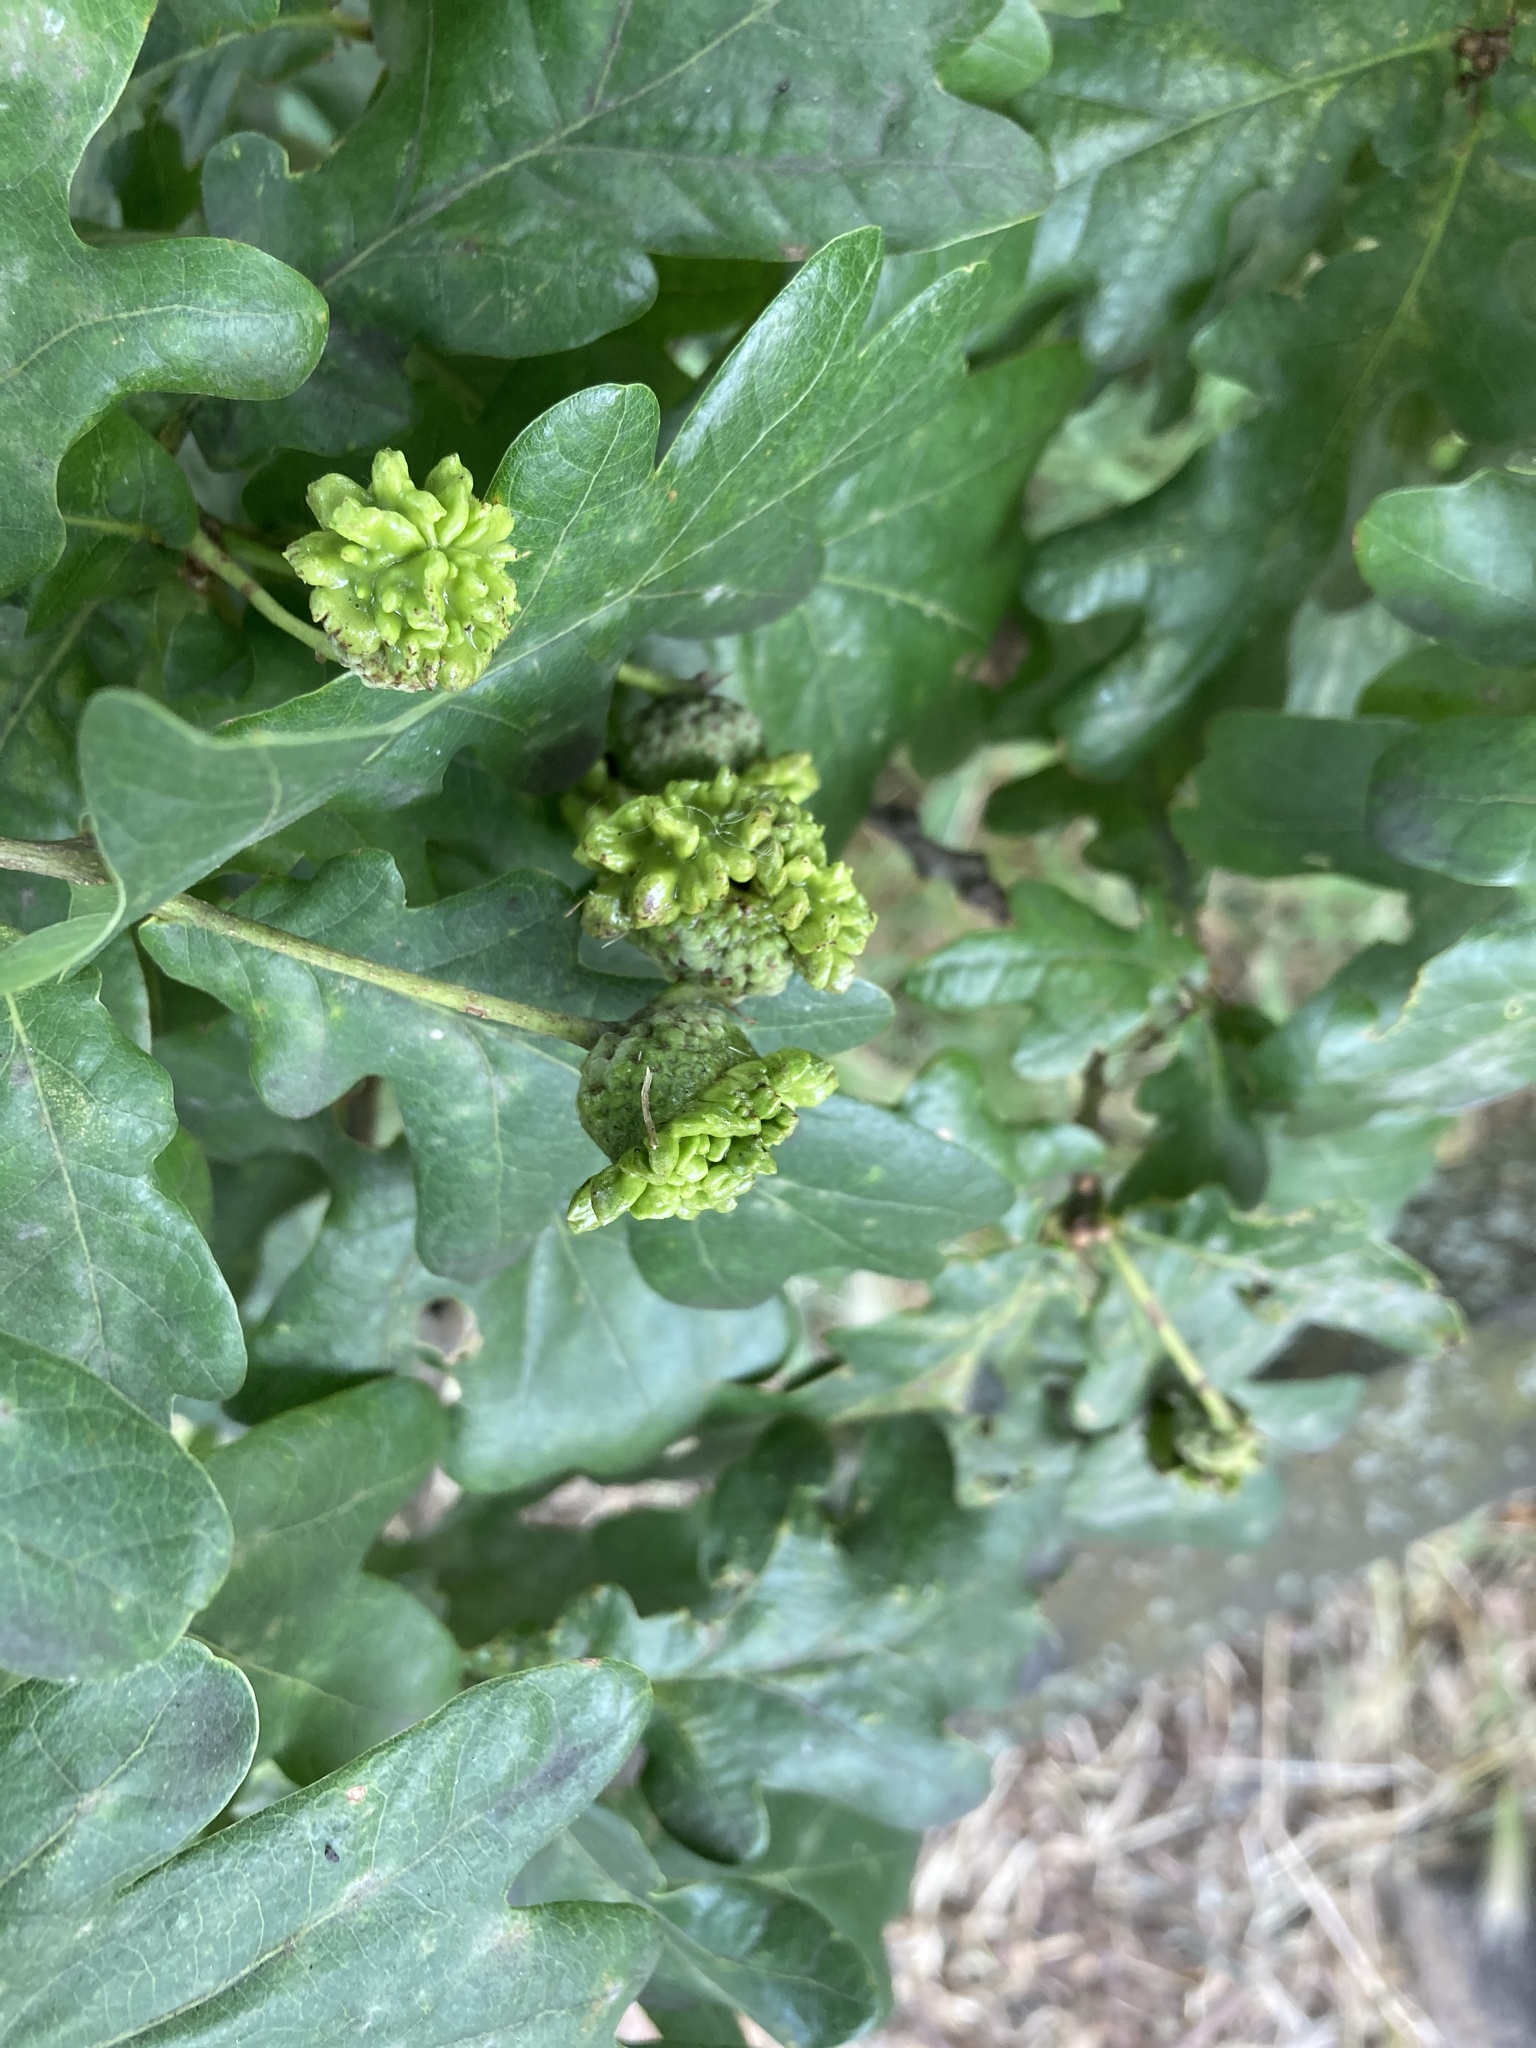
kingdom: Animalia
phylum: Arthropoda
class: Insecta
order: Hymenoptera
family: Cynipidae
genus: Andricus
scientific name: Andricus quercuscalicis
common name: Knopper gall
